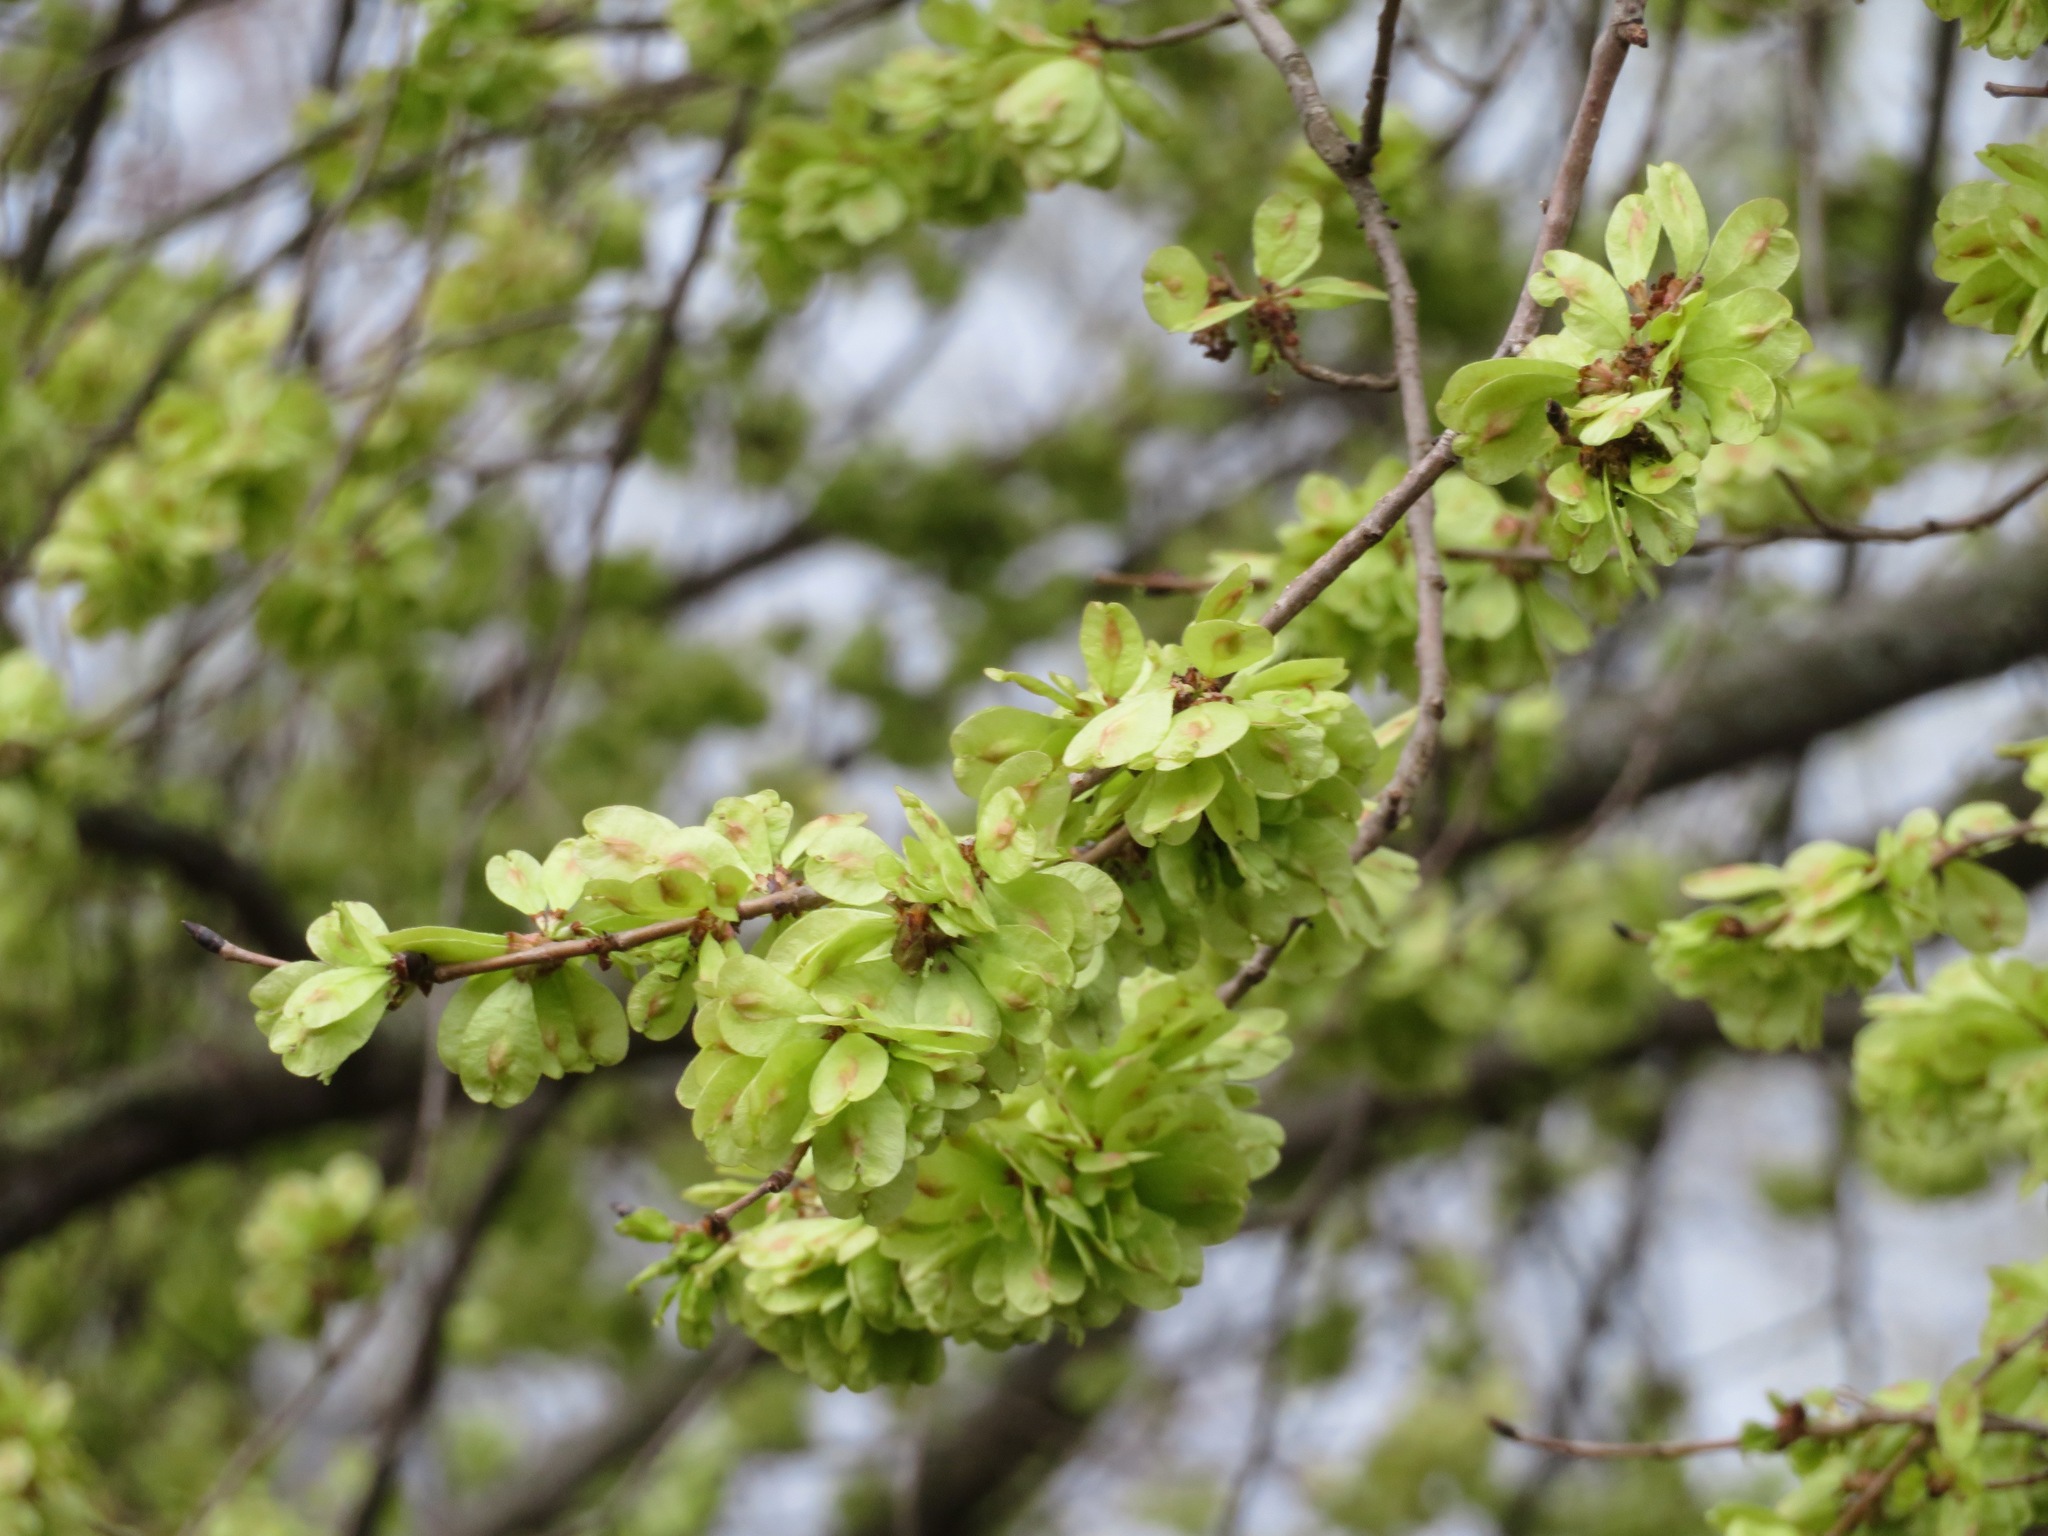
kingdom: Plantae
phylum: Tracheophyta
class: Magnoliopsida
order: Rosales
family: Ulmaceae
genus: Ulmus
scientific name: Ulmus minor
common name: Small-leaved elm
